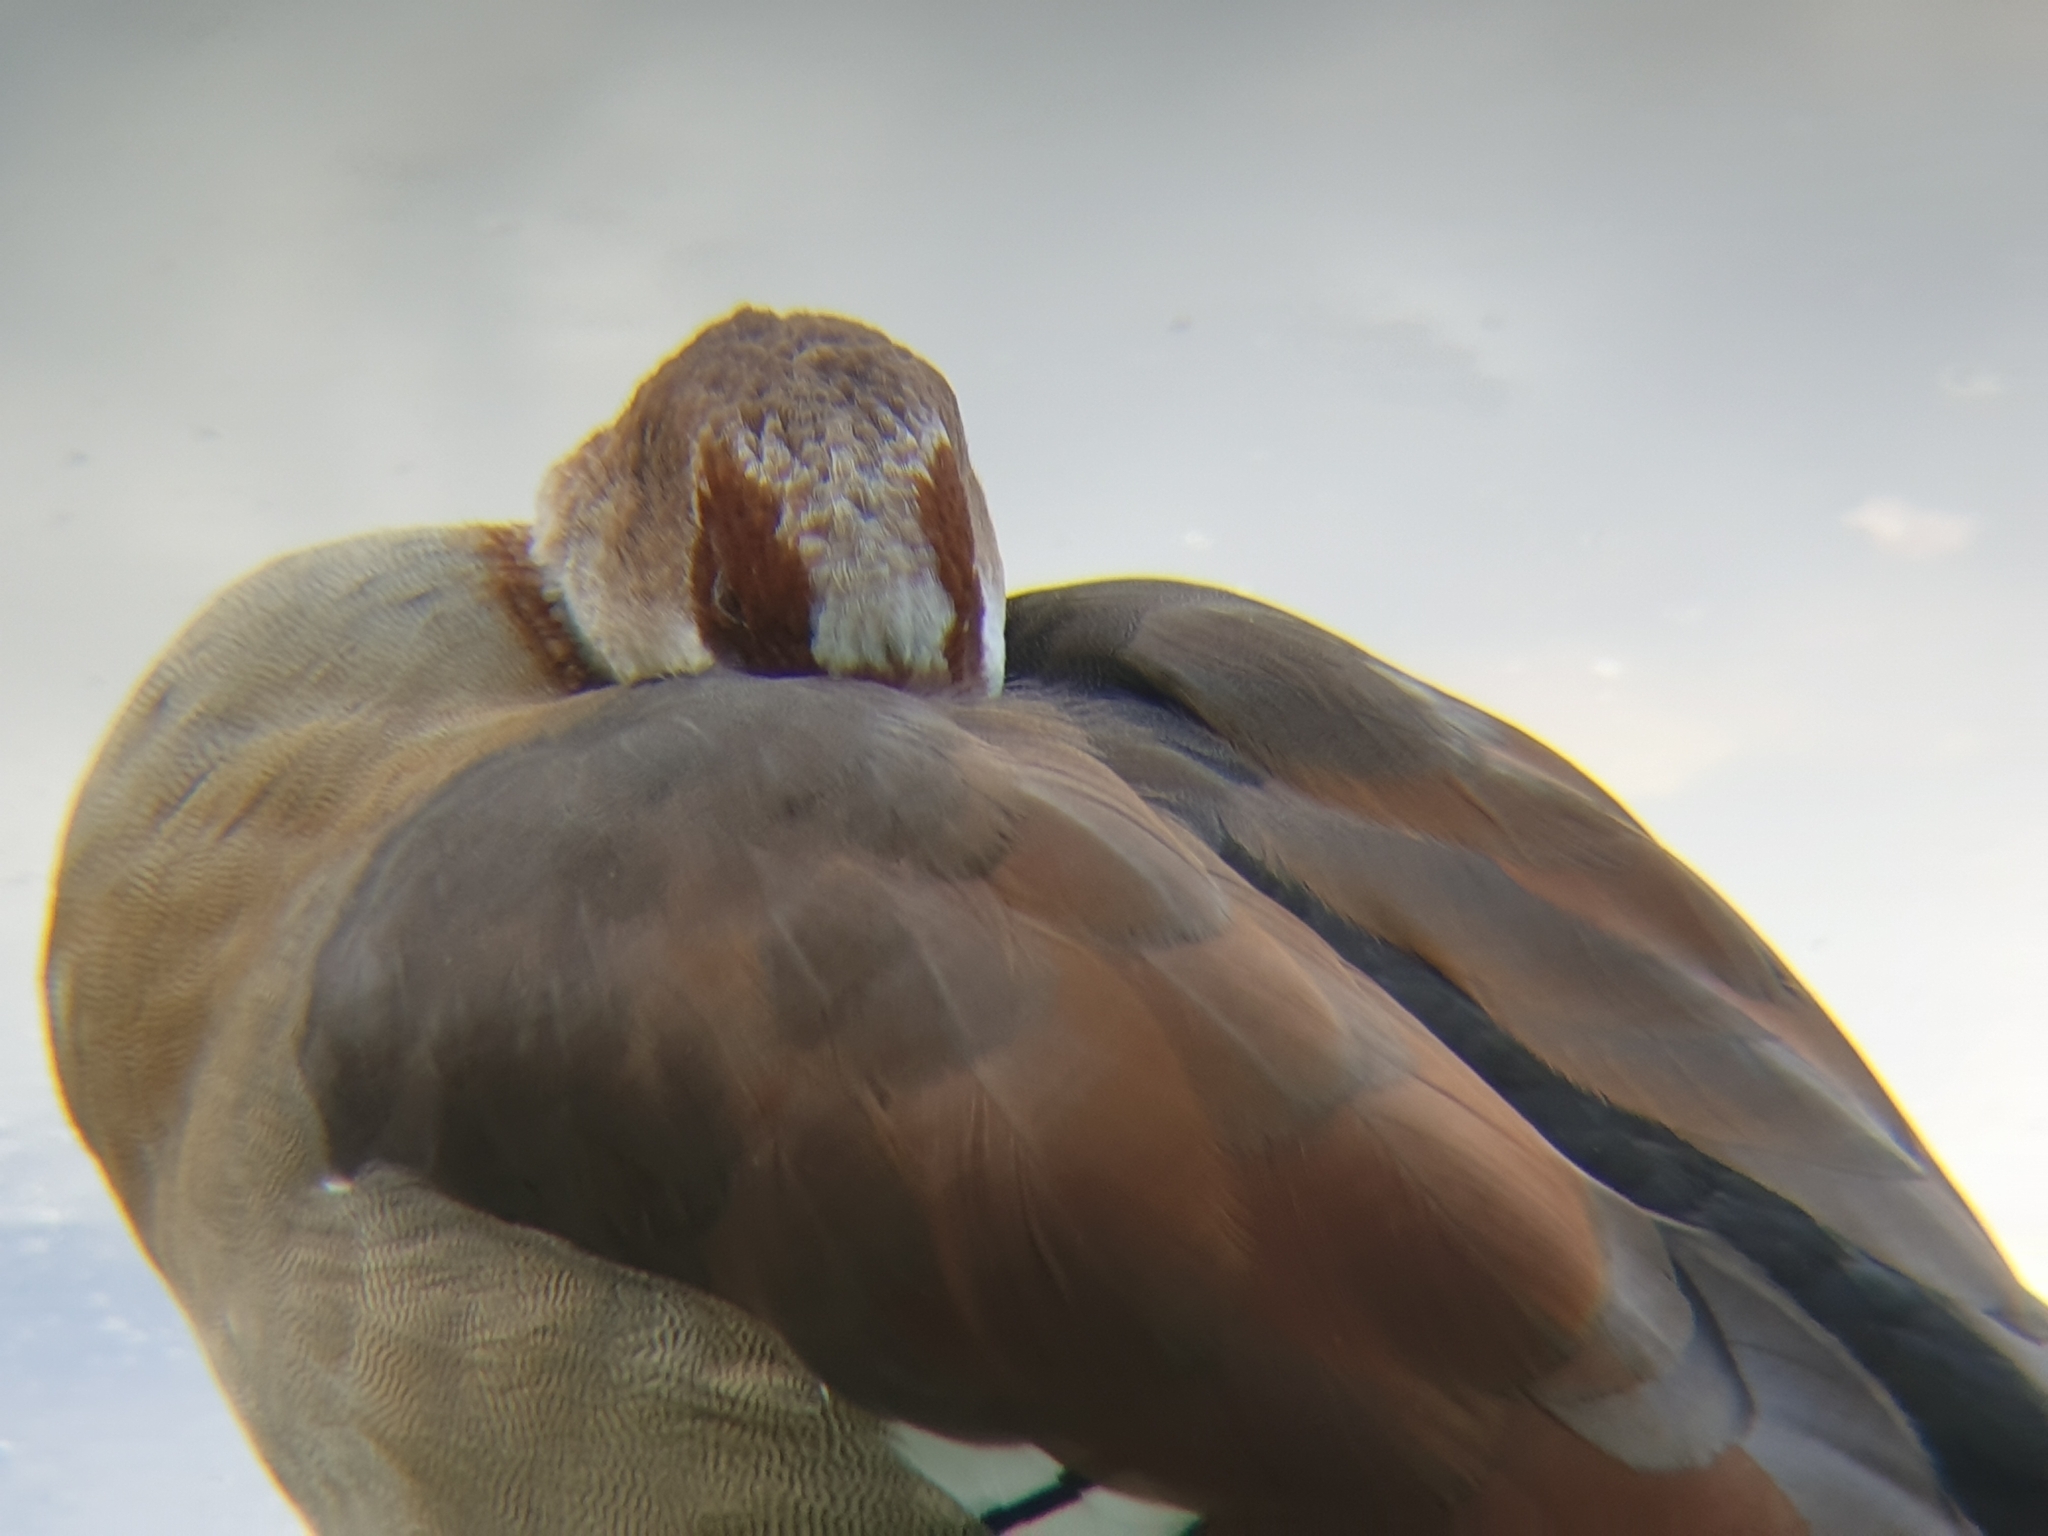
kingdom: Animalia
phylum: Chordata
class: Aves
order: Anseriformes
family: Anatidae
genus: Alopochen
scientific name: Alopochen aegyptiaca
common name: Egyptian goose
